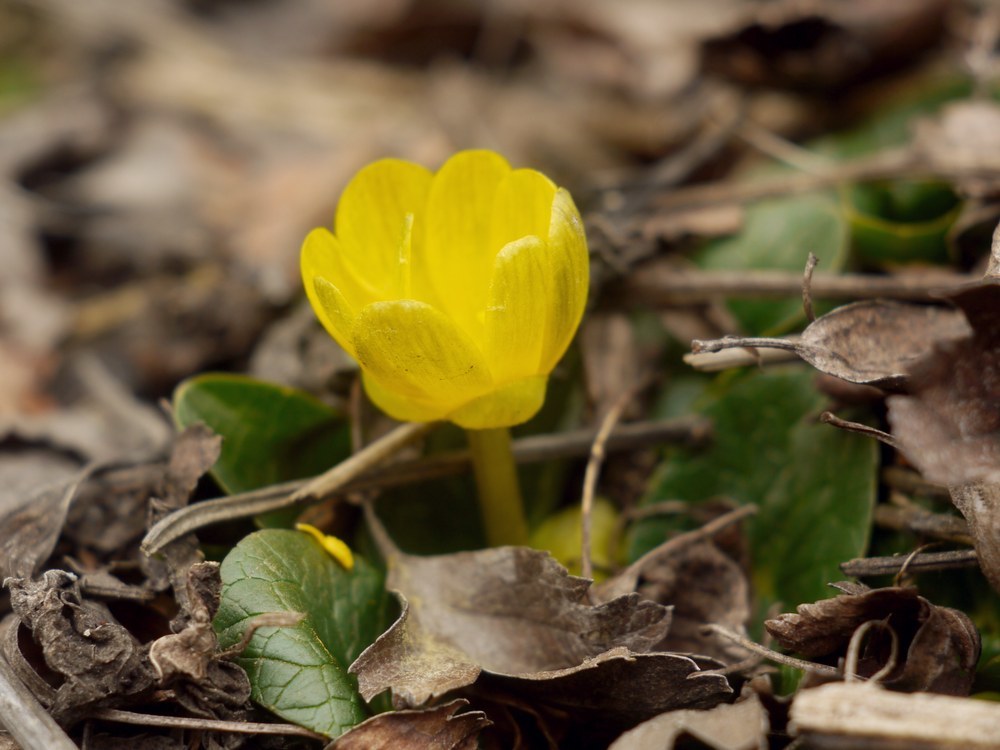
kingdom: Plantae
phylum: Tracheophyta
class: Magnoliopsida
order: Ranunculales
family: Ranunculaceae
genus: Ficaria
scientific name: Ficaria verna
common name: Lesser celandine
